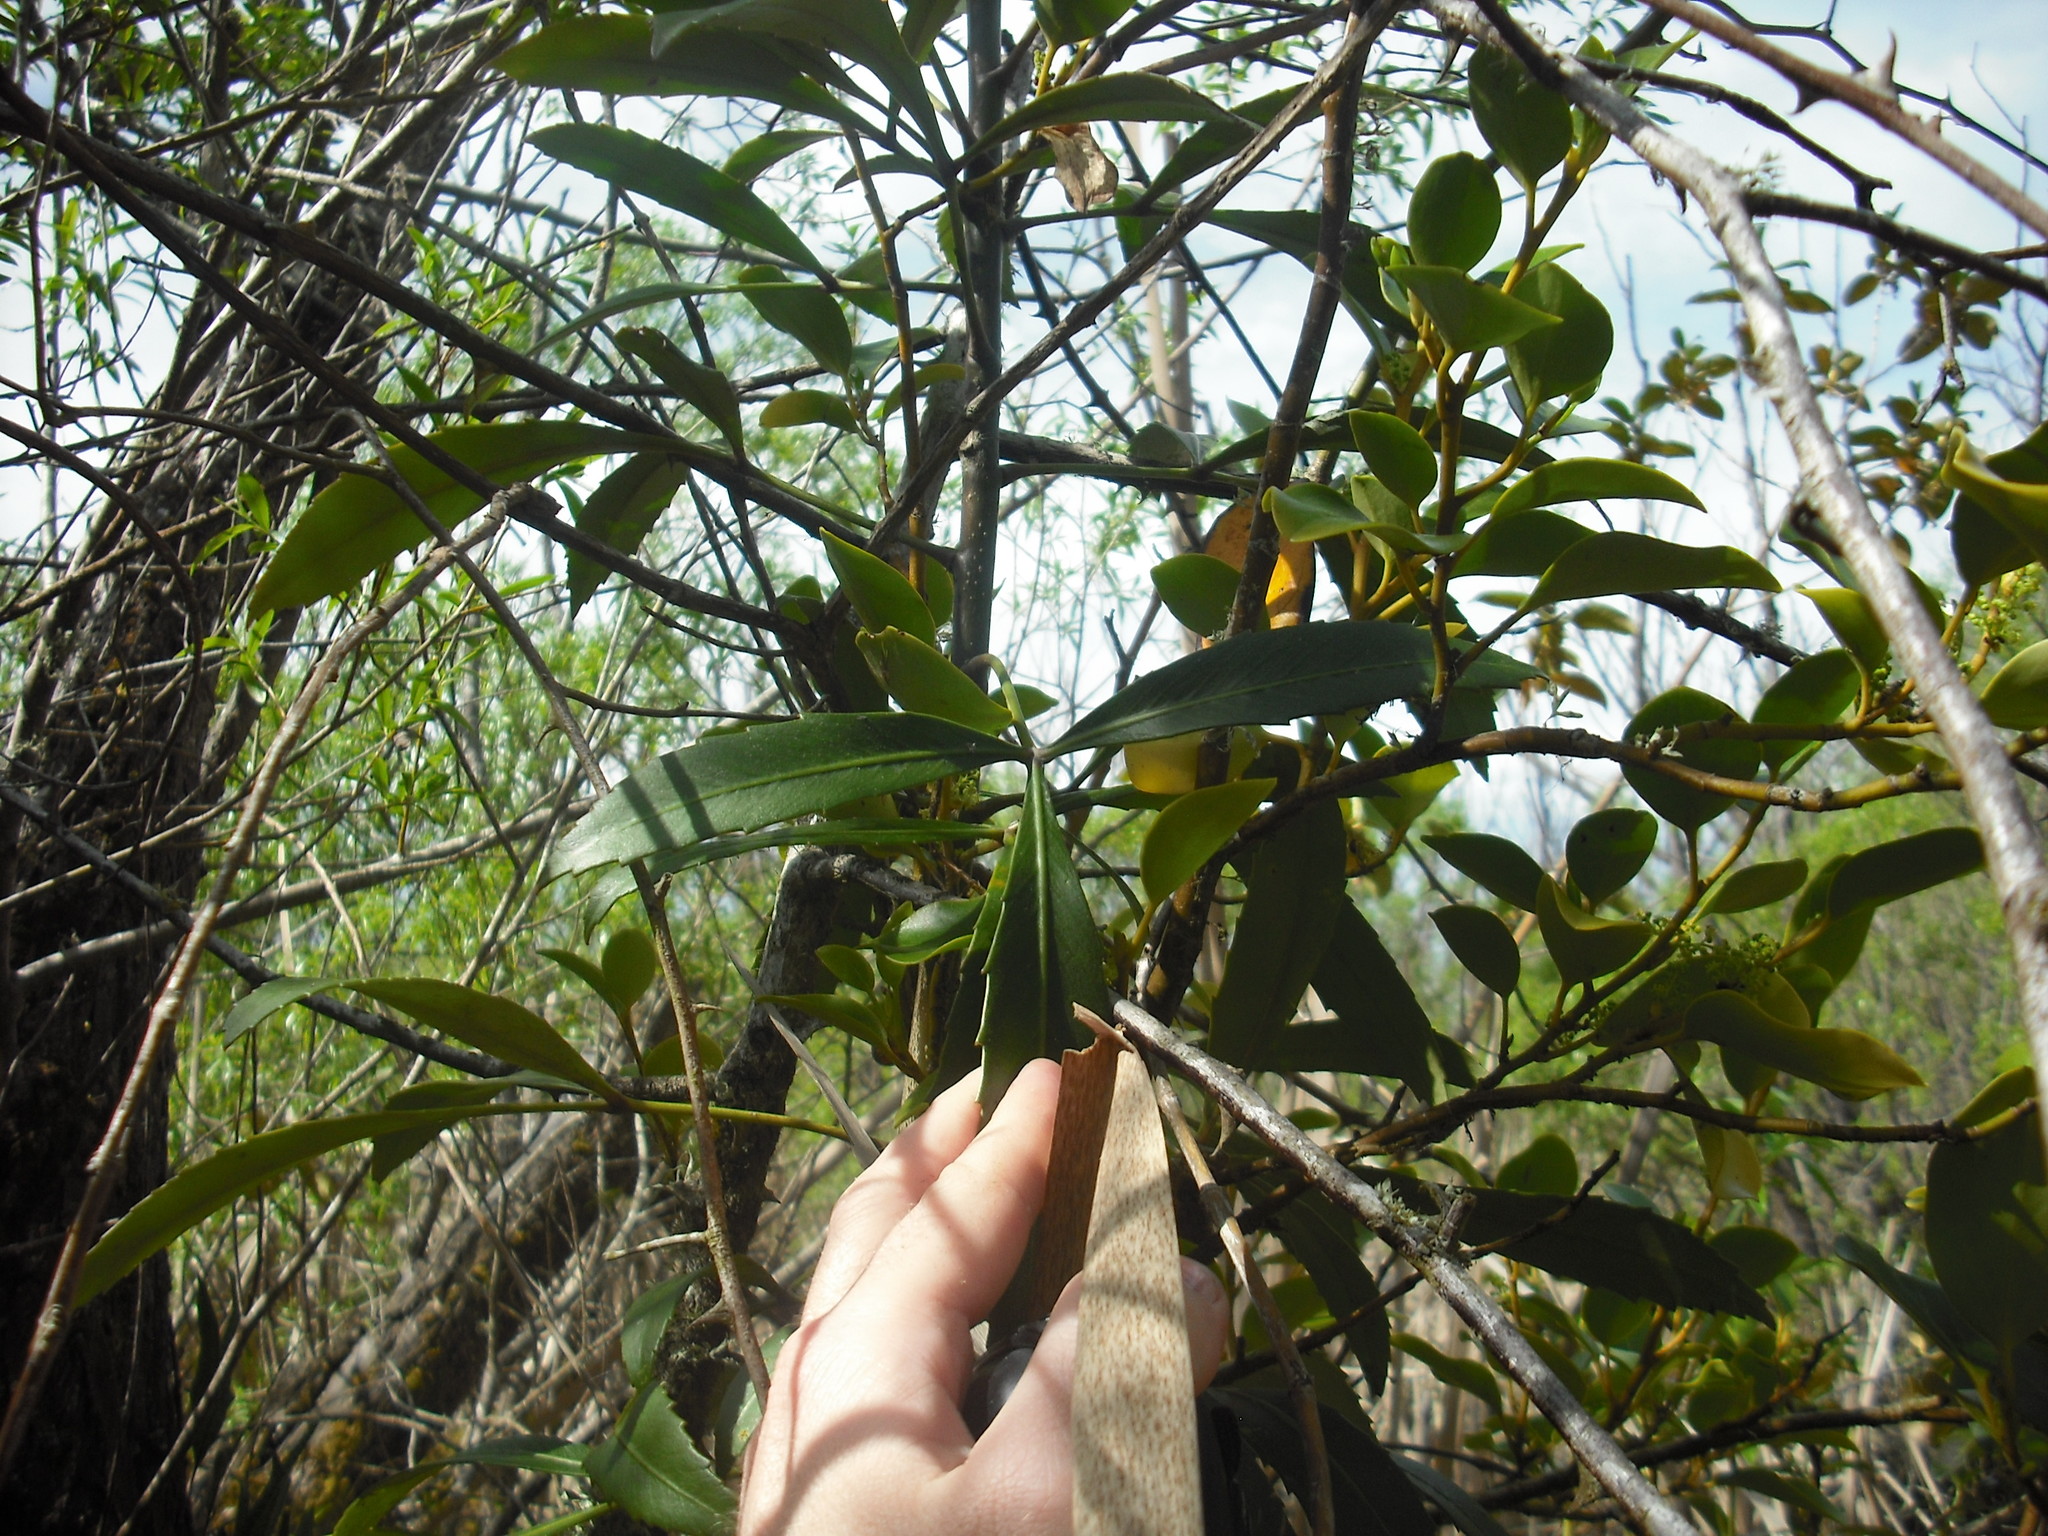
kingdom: Plantae
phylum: Tracheophyta
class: Magnoliopsida
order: Apiales
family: Araliaceae
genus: Pseudopanax
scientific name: Pseudopanax
